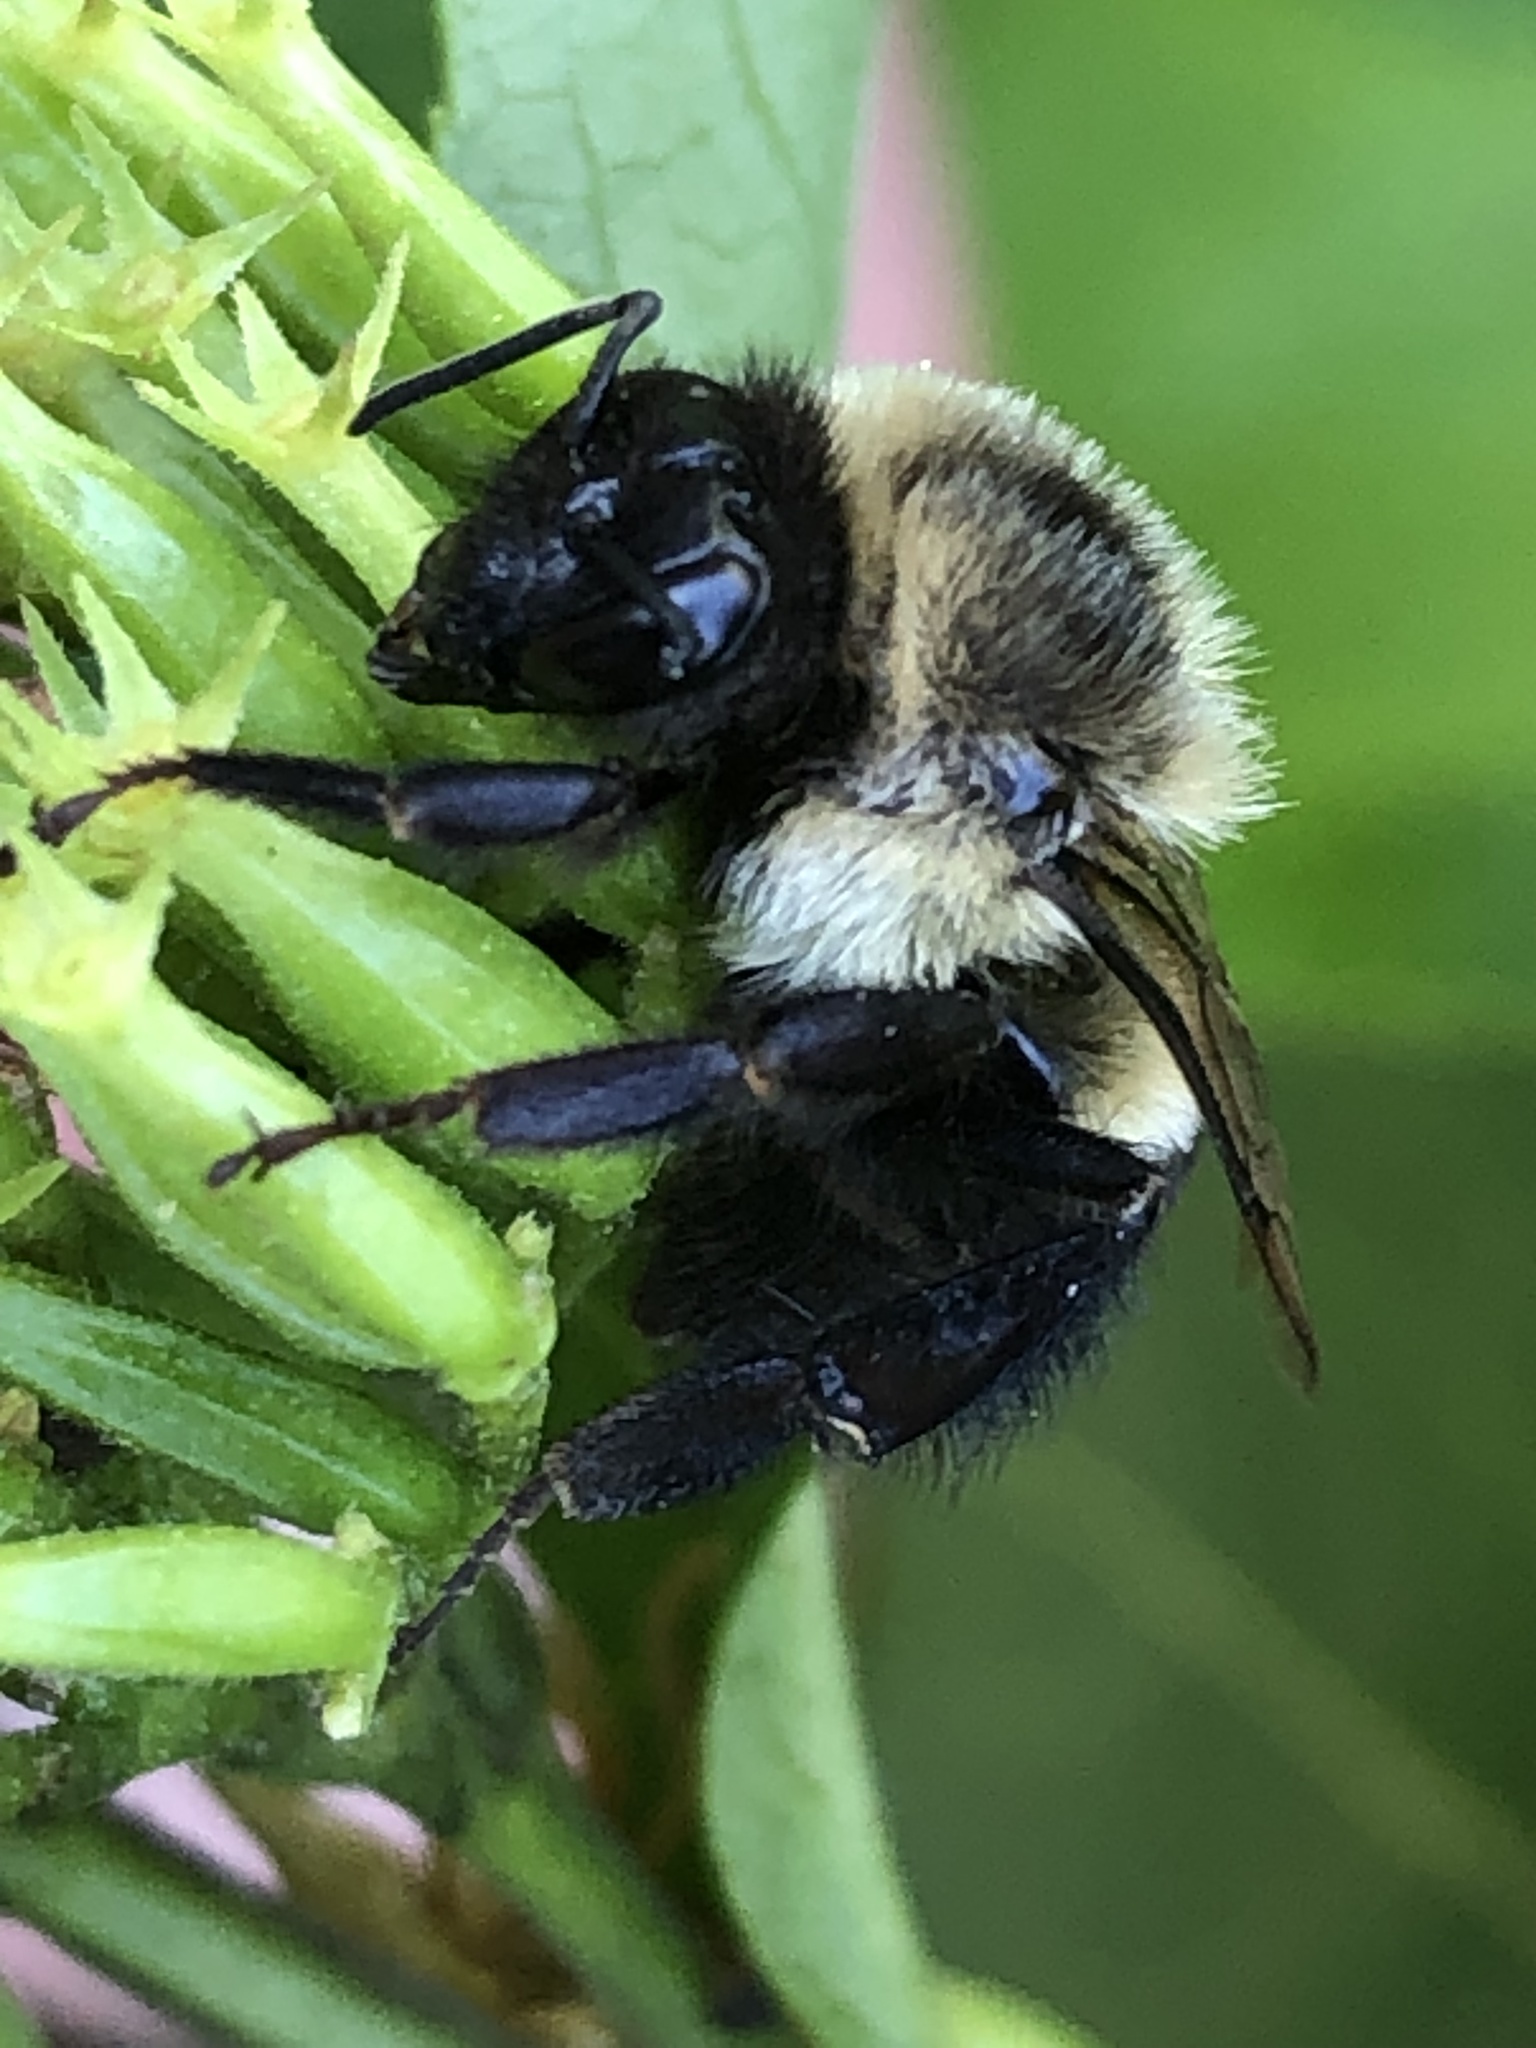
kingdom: Animalia
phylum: Arthropoda
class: Insecta
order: Hymenoptera
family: Apidae
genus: Bombus
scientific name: Bombus impatiens
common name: Common eastern bumble bee
